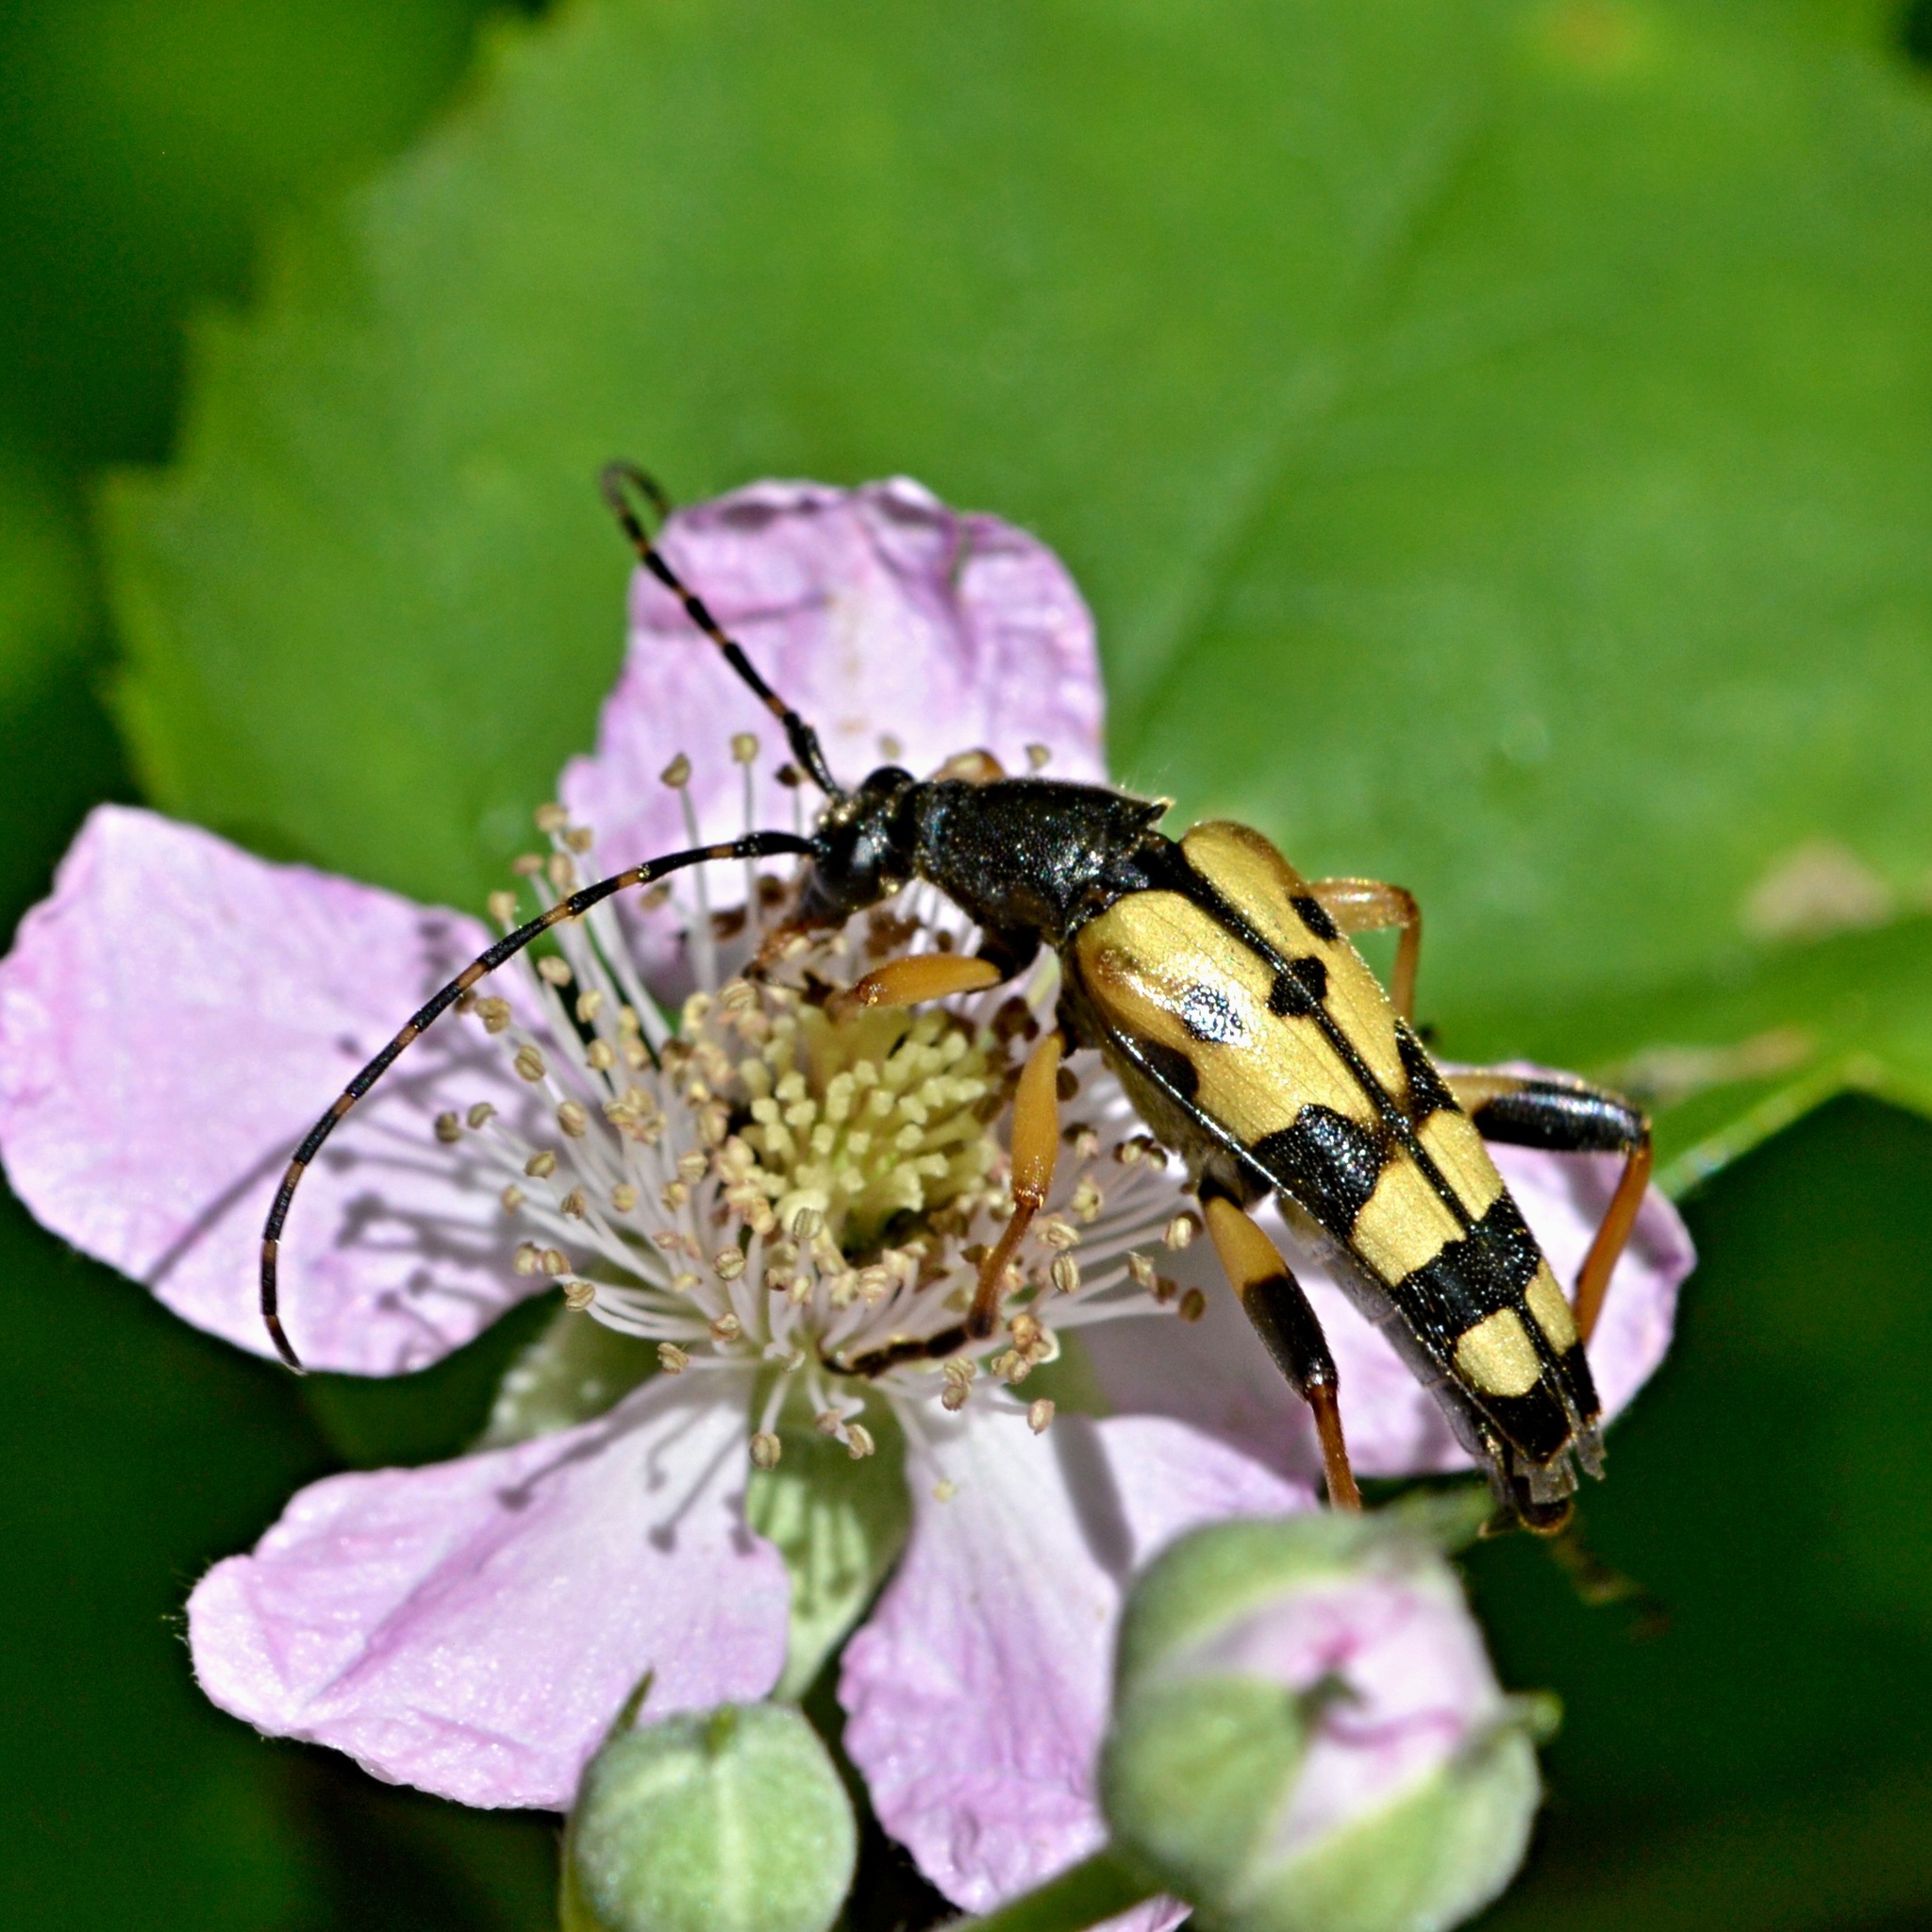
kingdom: Animalia
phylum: Arthropoda
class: Insecta
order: Coleoptera
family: Cerambycidae
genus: Rutpela
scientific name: Rutpela maculata
